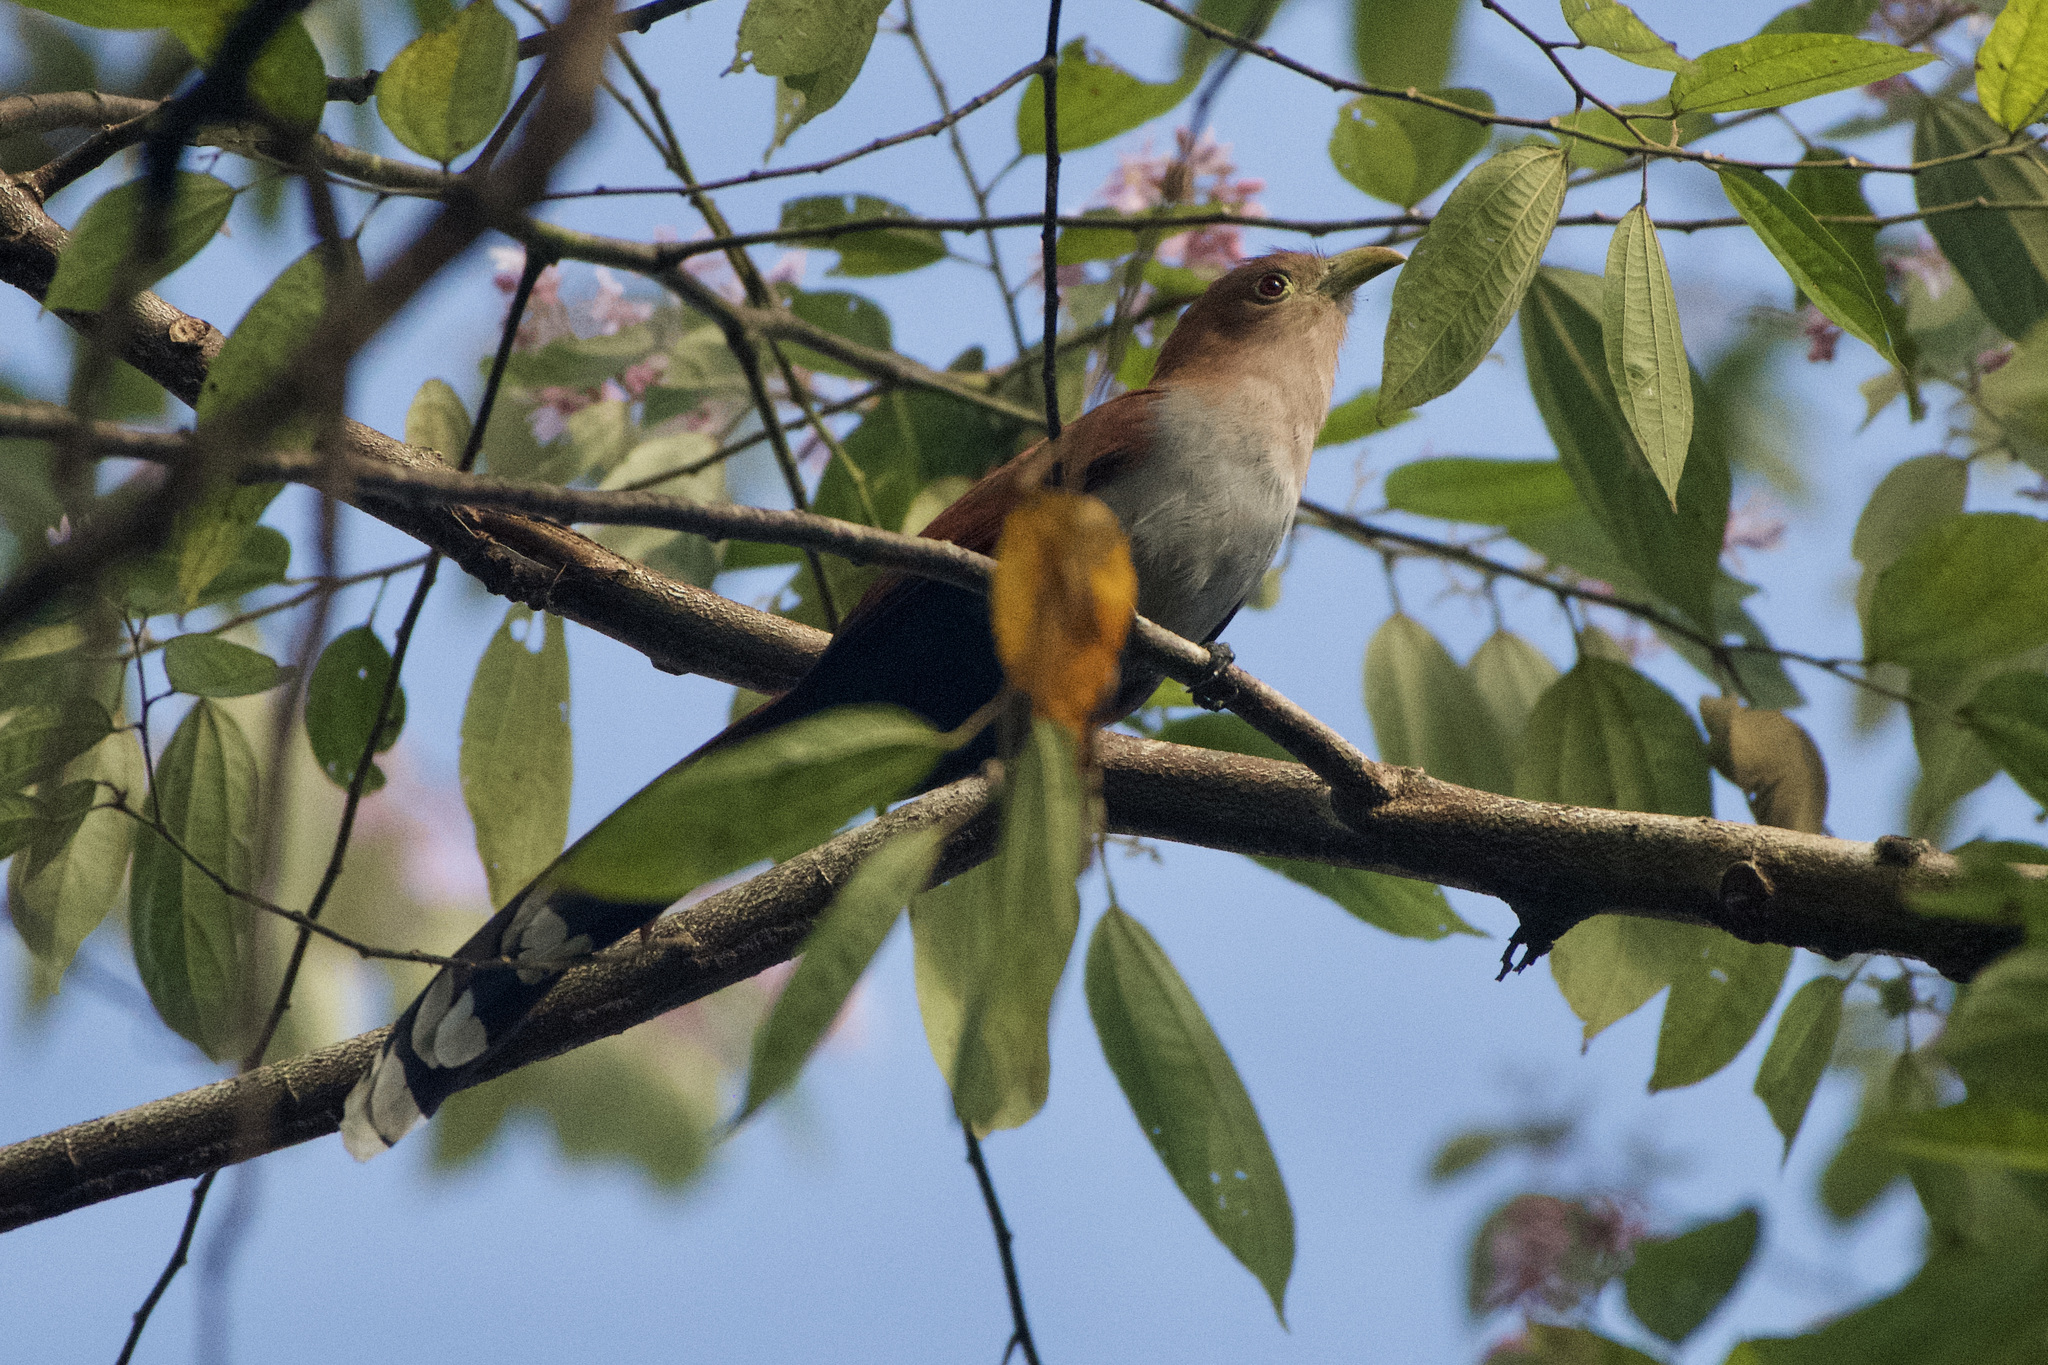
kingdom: Animalia
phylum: Chordata
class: Aves
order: Cuculiformes
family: Cuculidae
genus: Piaya
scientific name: Piaya cayana
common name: Squirrel cuckoo
